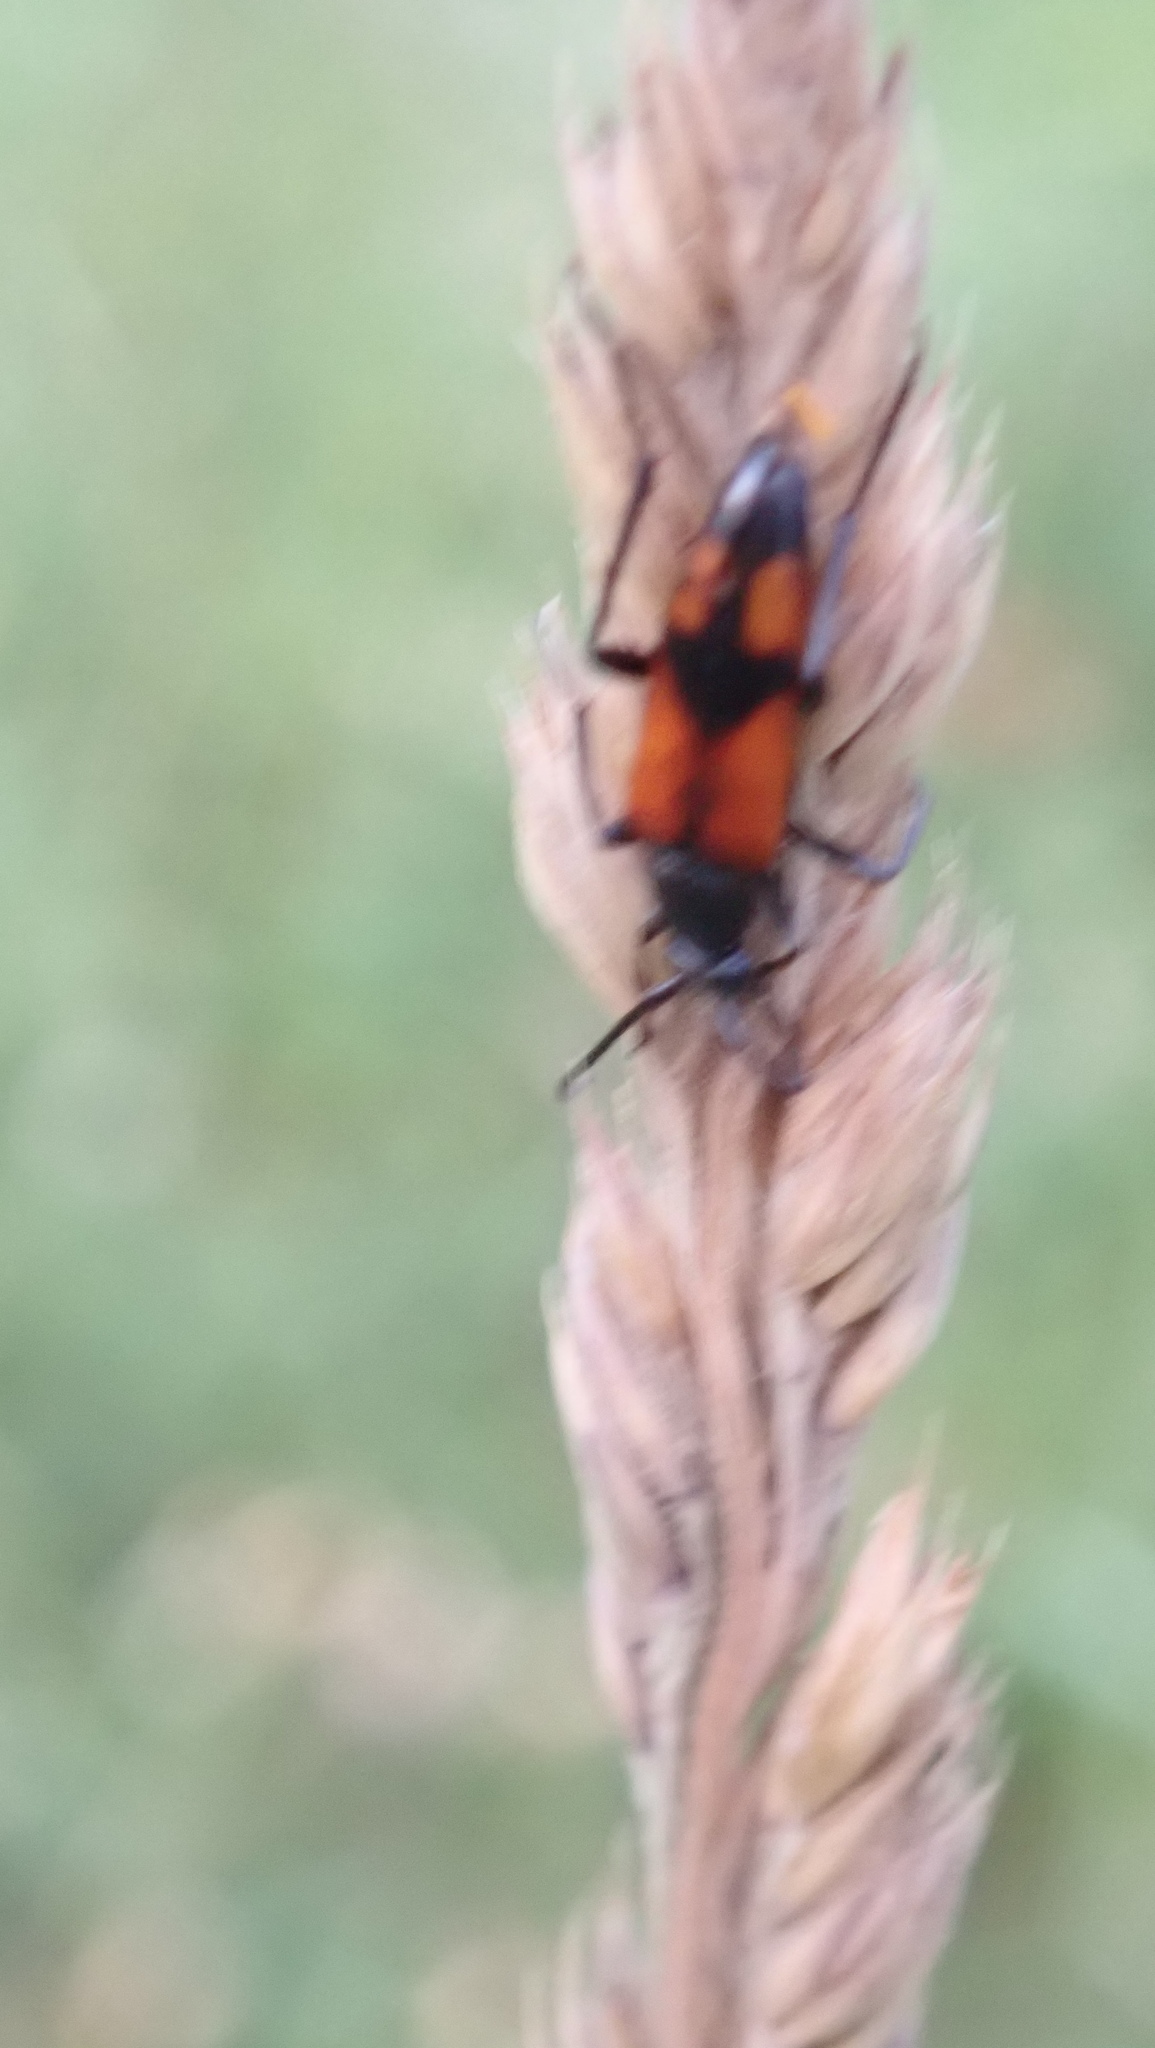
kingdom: Animalia
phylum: Arthropoda
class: Insecta
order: Coleoptera
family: Cerambycidae
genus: Stenurella
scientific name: Stenurella bifasciata
